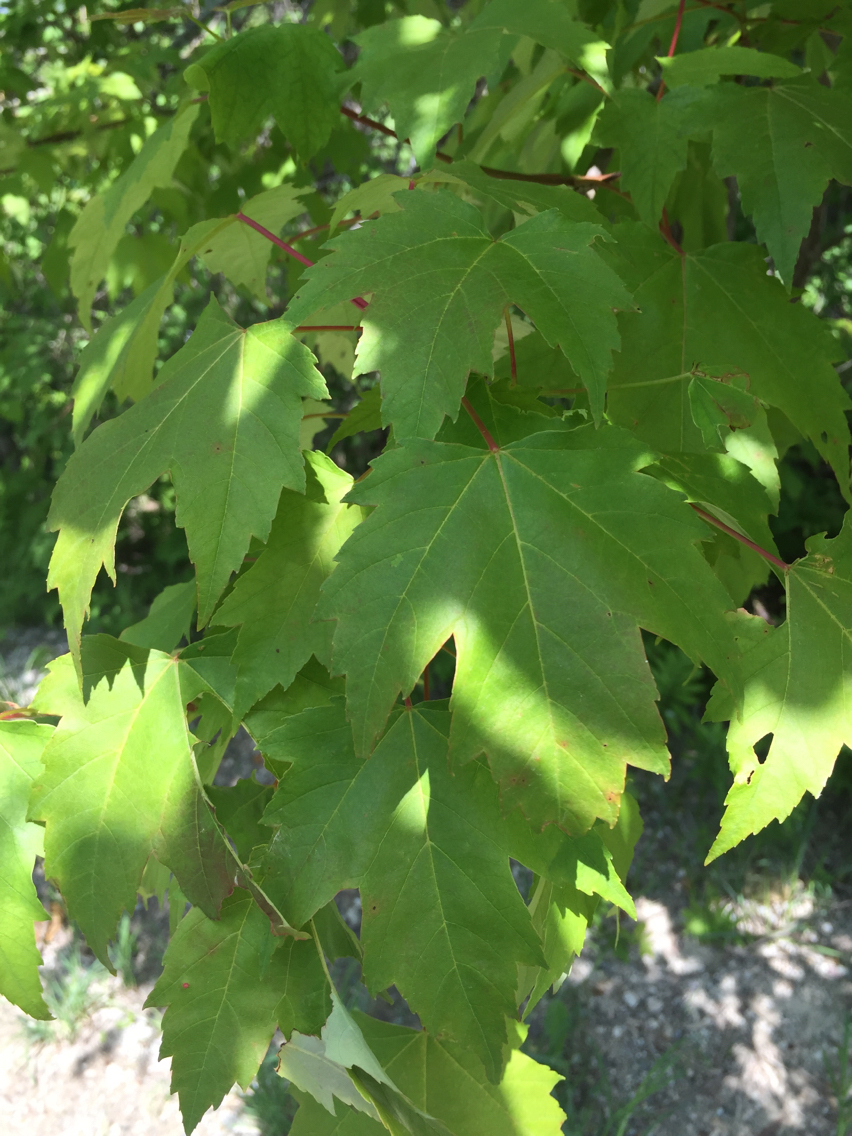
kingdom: Plantae
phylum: Tracheophyta
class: Magnoliopsida
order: Sapindales
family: Sapindaceae
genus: Acer
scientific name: Acer rubrum
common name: Red maple
